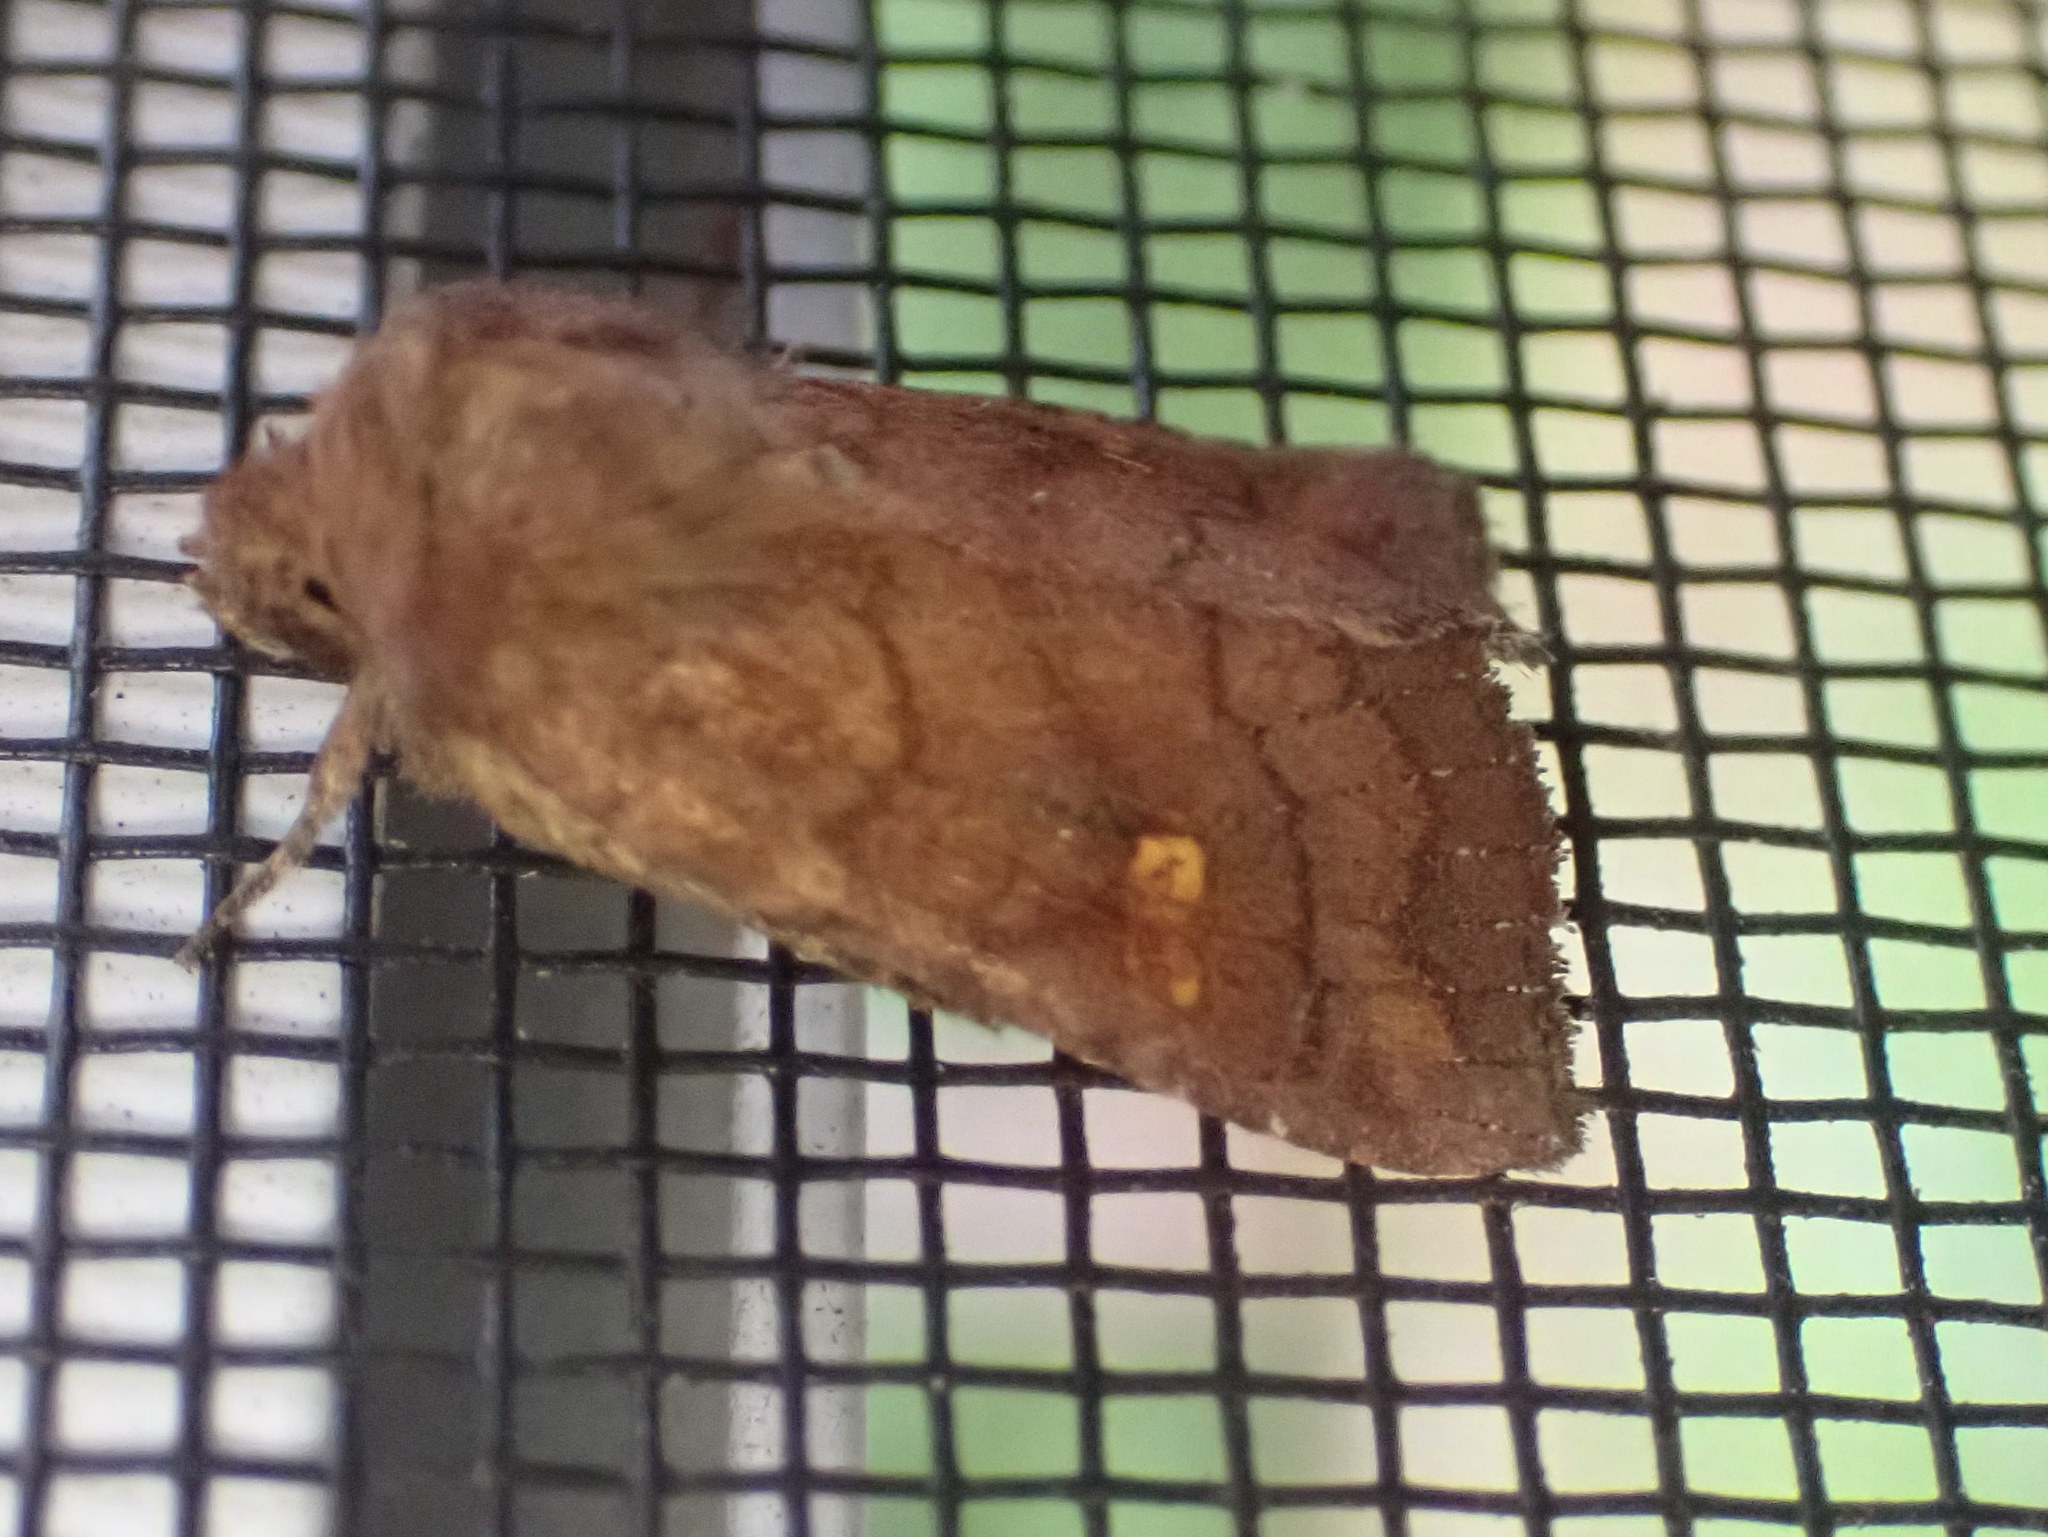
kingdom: Animalia
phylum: Arthropoda
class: Insecta
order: Lepidoptera
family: Noctuidae
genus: Tricholita
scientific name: Tricholita signata
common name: Signate quaker
